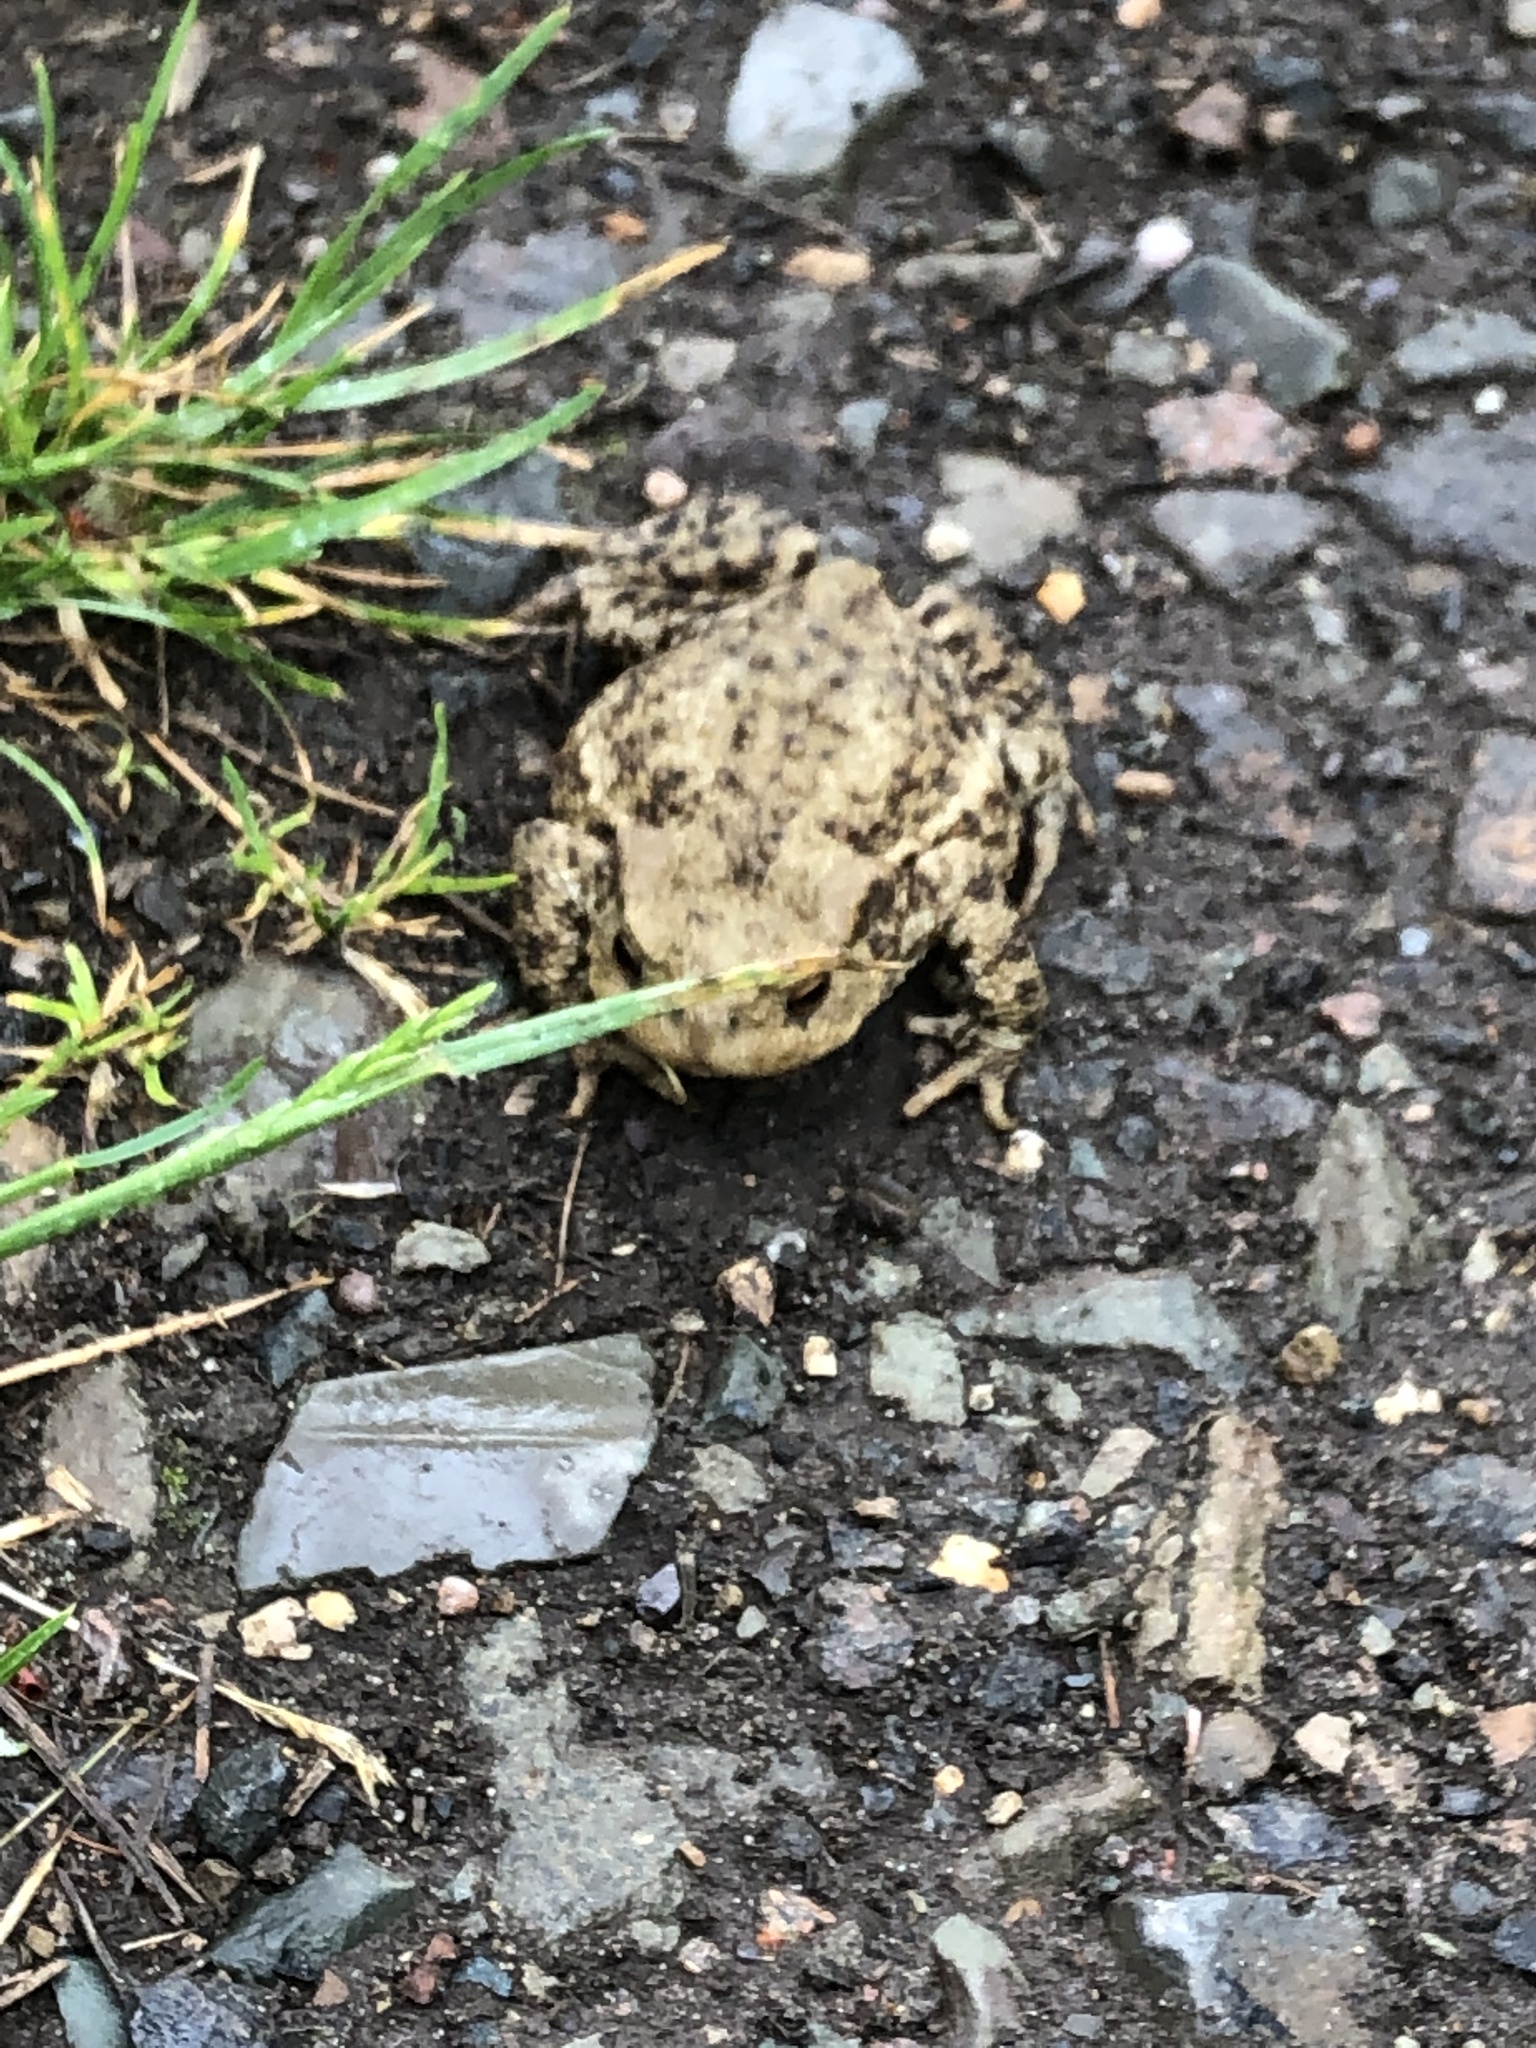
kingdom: Animalia
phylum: Chordata
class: Amphibia
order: Anura
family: Bufonidae
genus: Bufo
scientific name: Bufo bufo
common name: Common toad
